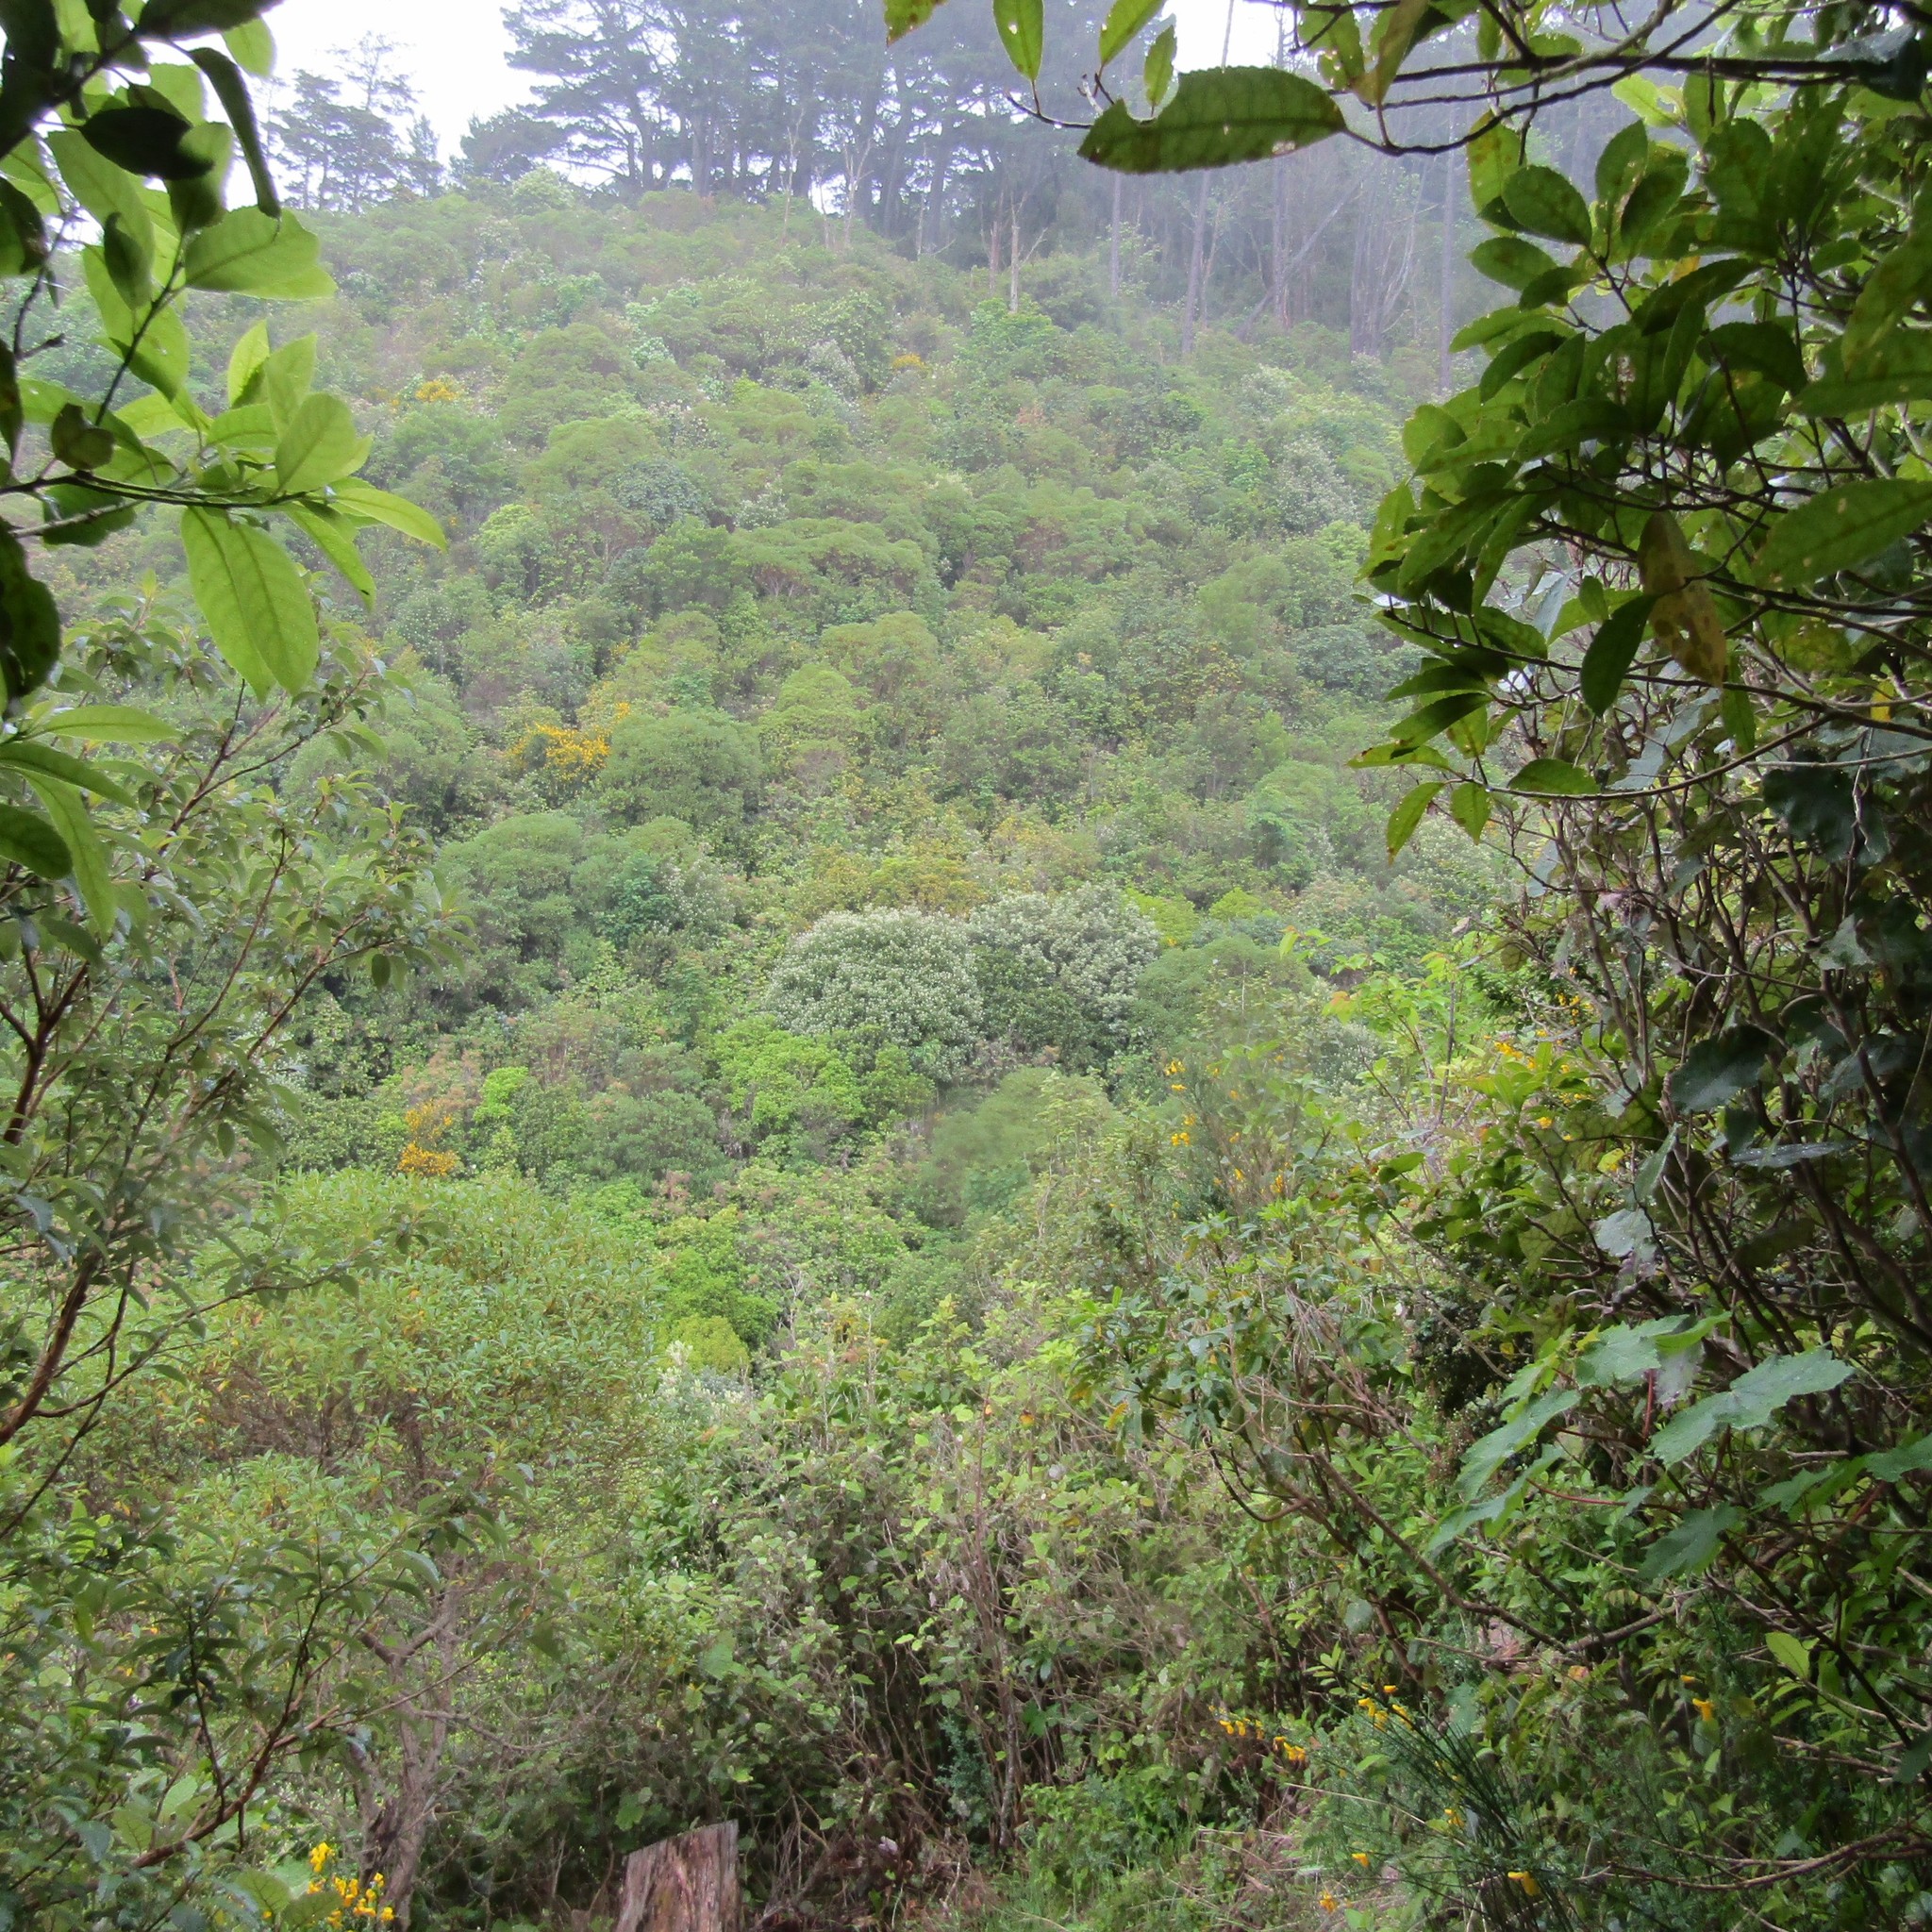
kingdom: Plantae
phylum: Tracheophyta
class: Magnoliopsida
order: Sapindales
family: Sapindaceae
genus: Acer
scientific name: Acer pseudoplatanus
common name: Sycamore
